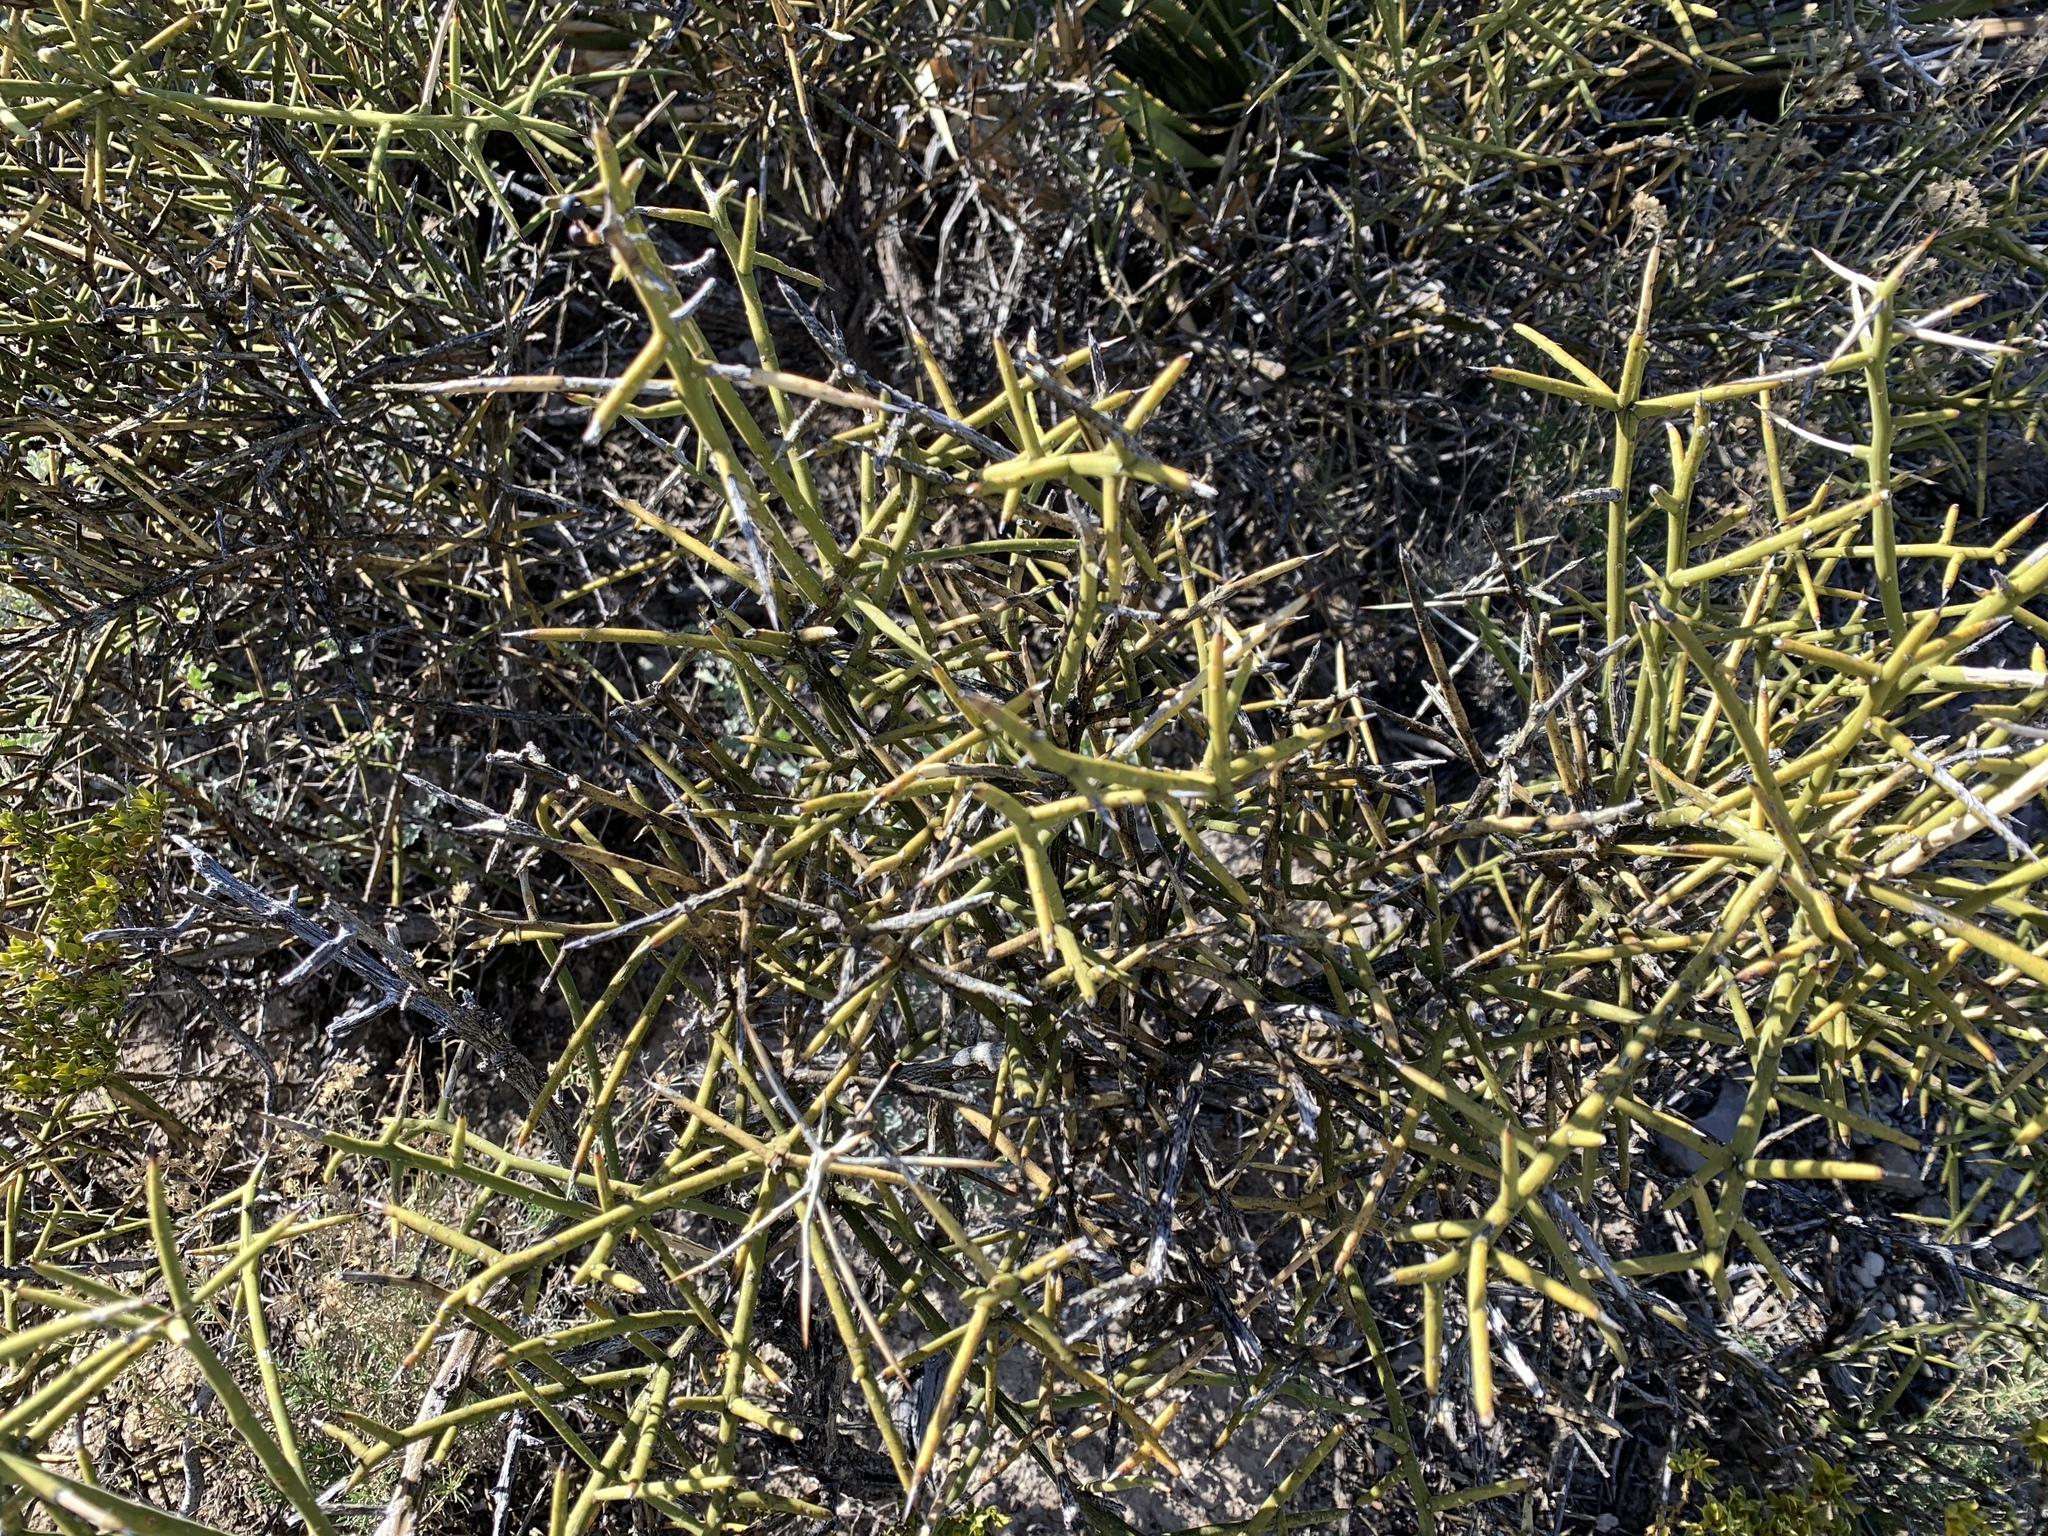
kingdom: Plantae
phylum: Tracheophyta
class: Magnoliopsida
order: Brassicales
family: Koeberliniaceae
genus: Koeberlinia
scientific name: Koeberlinia spinosa
